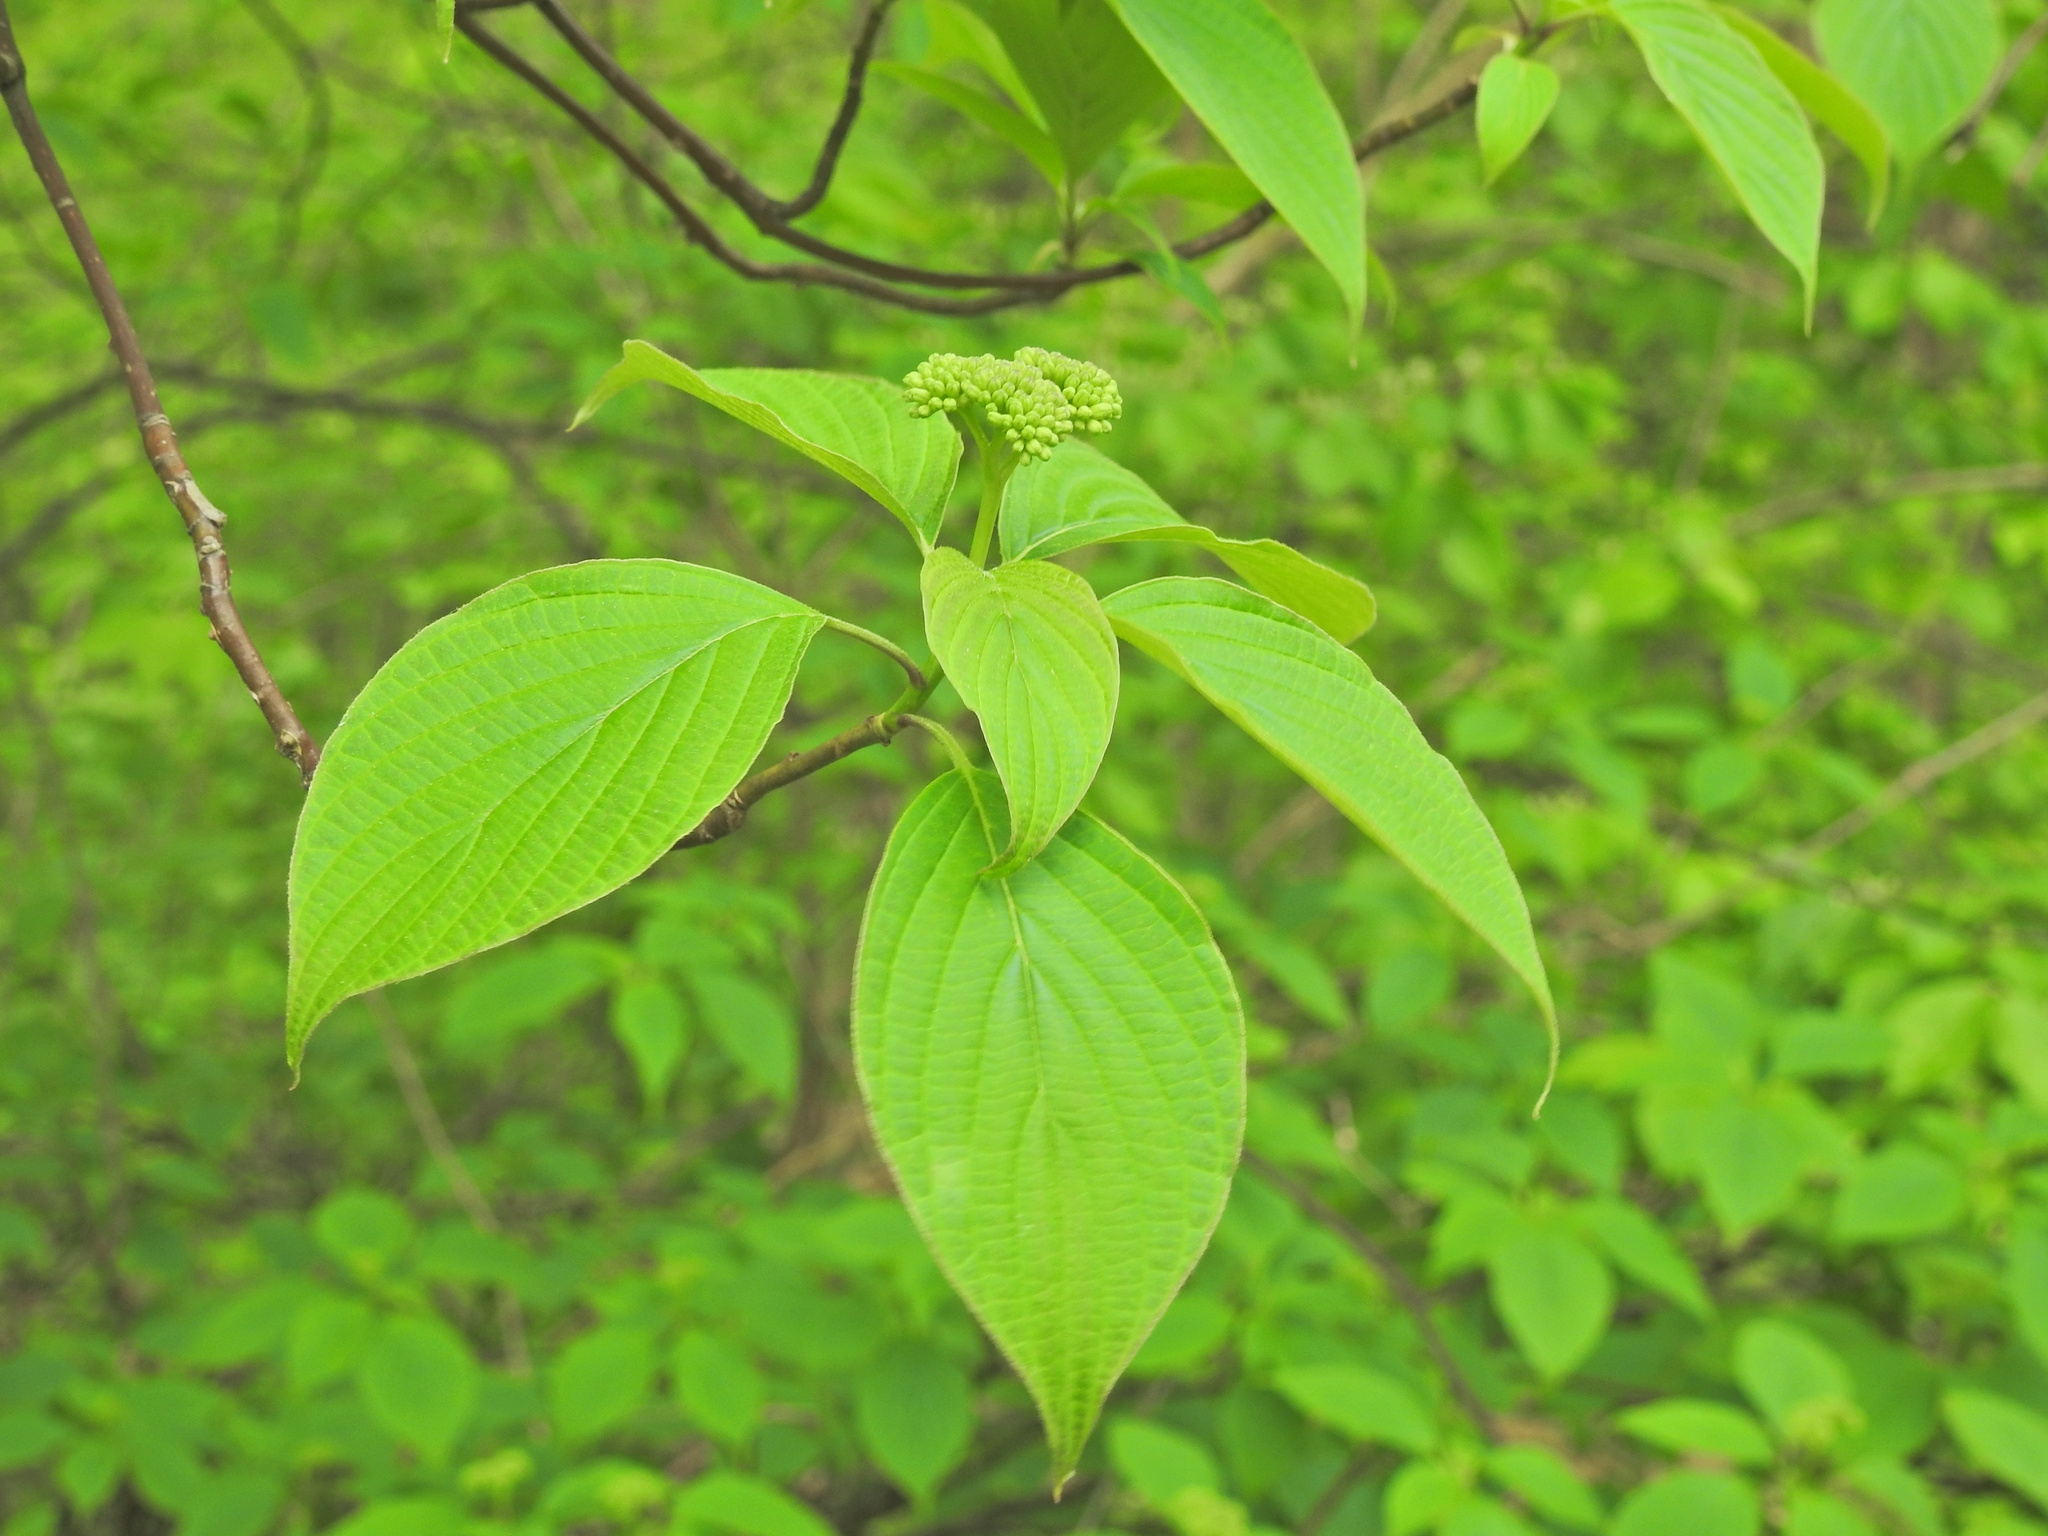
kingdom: Plantae
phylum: Tracheophyta
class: Magnoliopsida
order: Cornales
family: Cornaceae
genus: Cornus
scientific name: Cornus alternifolia
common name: Pagoda dogwood
